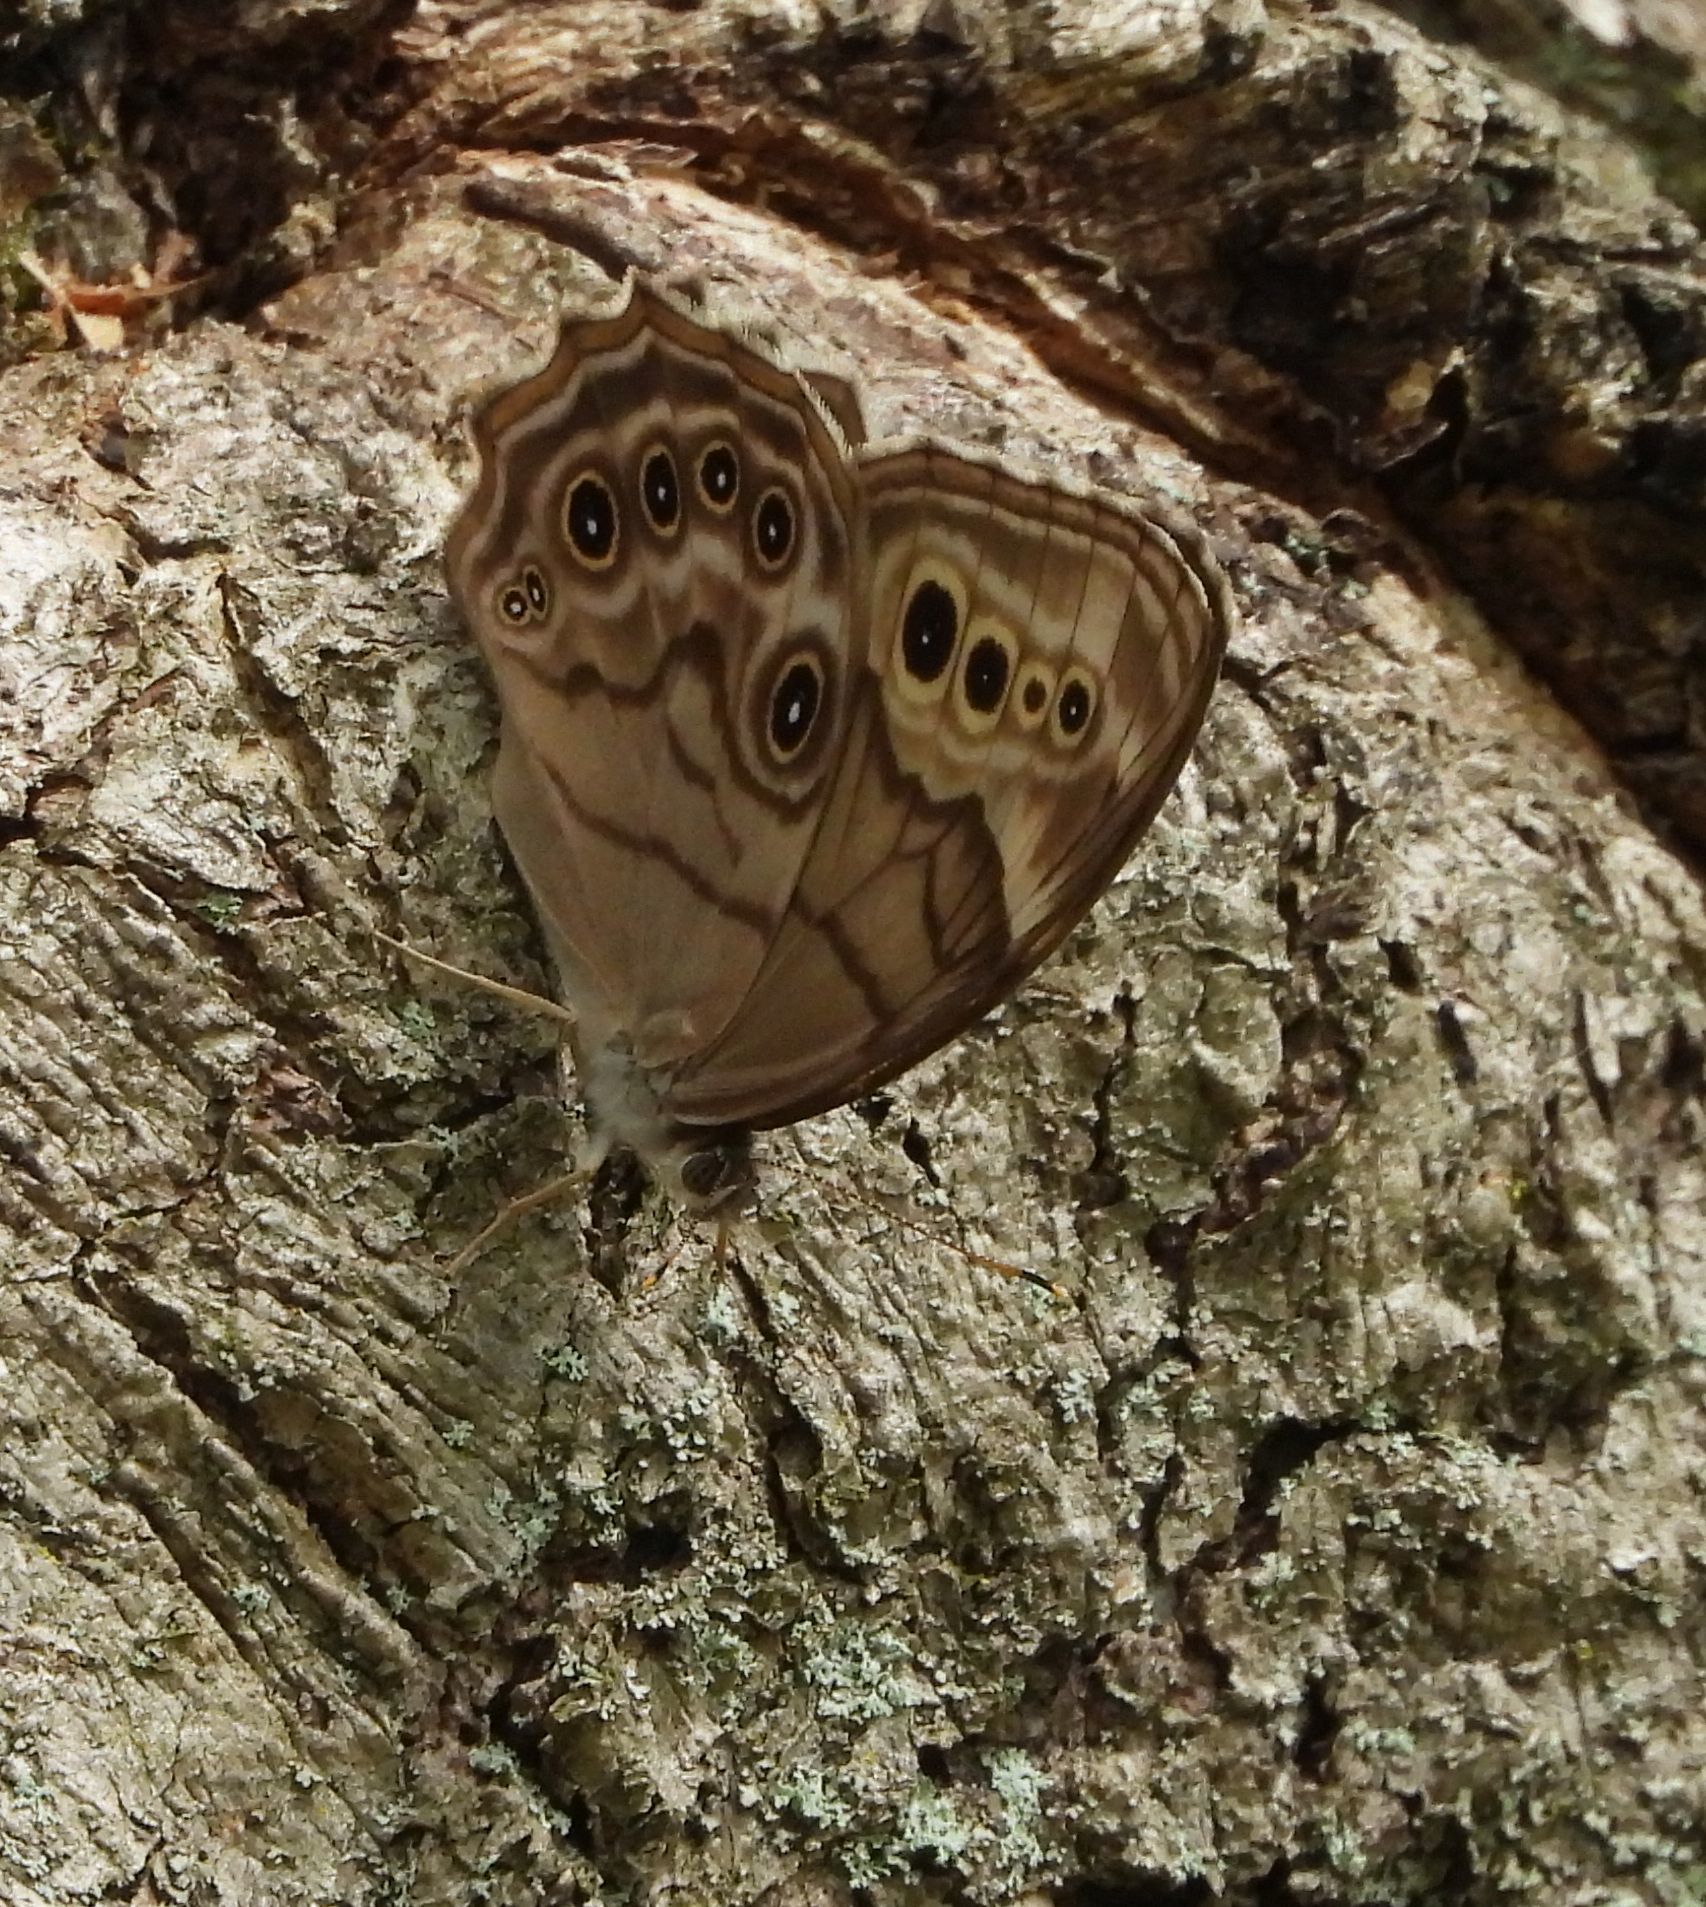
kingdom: Animalia
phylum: Arthropoda
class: Insecta
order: Lepidoptera
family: Nymphalidae
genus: Lethe
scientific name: Lethe anthedon
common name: Northern pearly-eye
